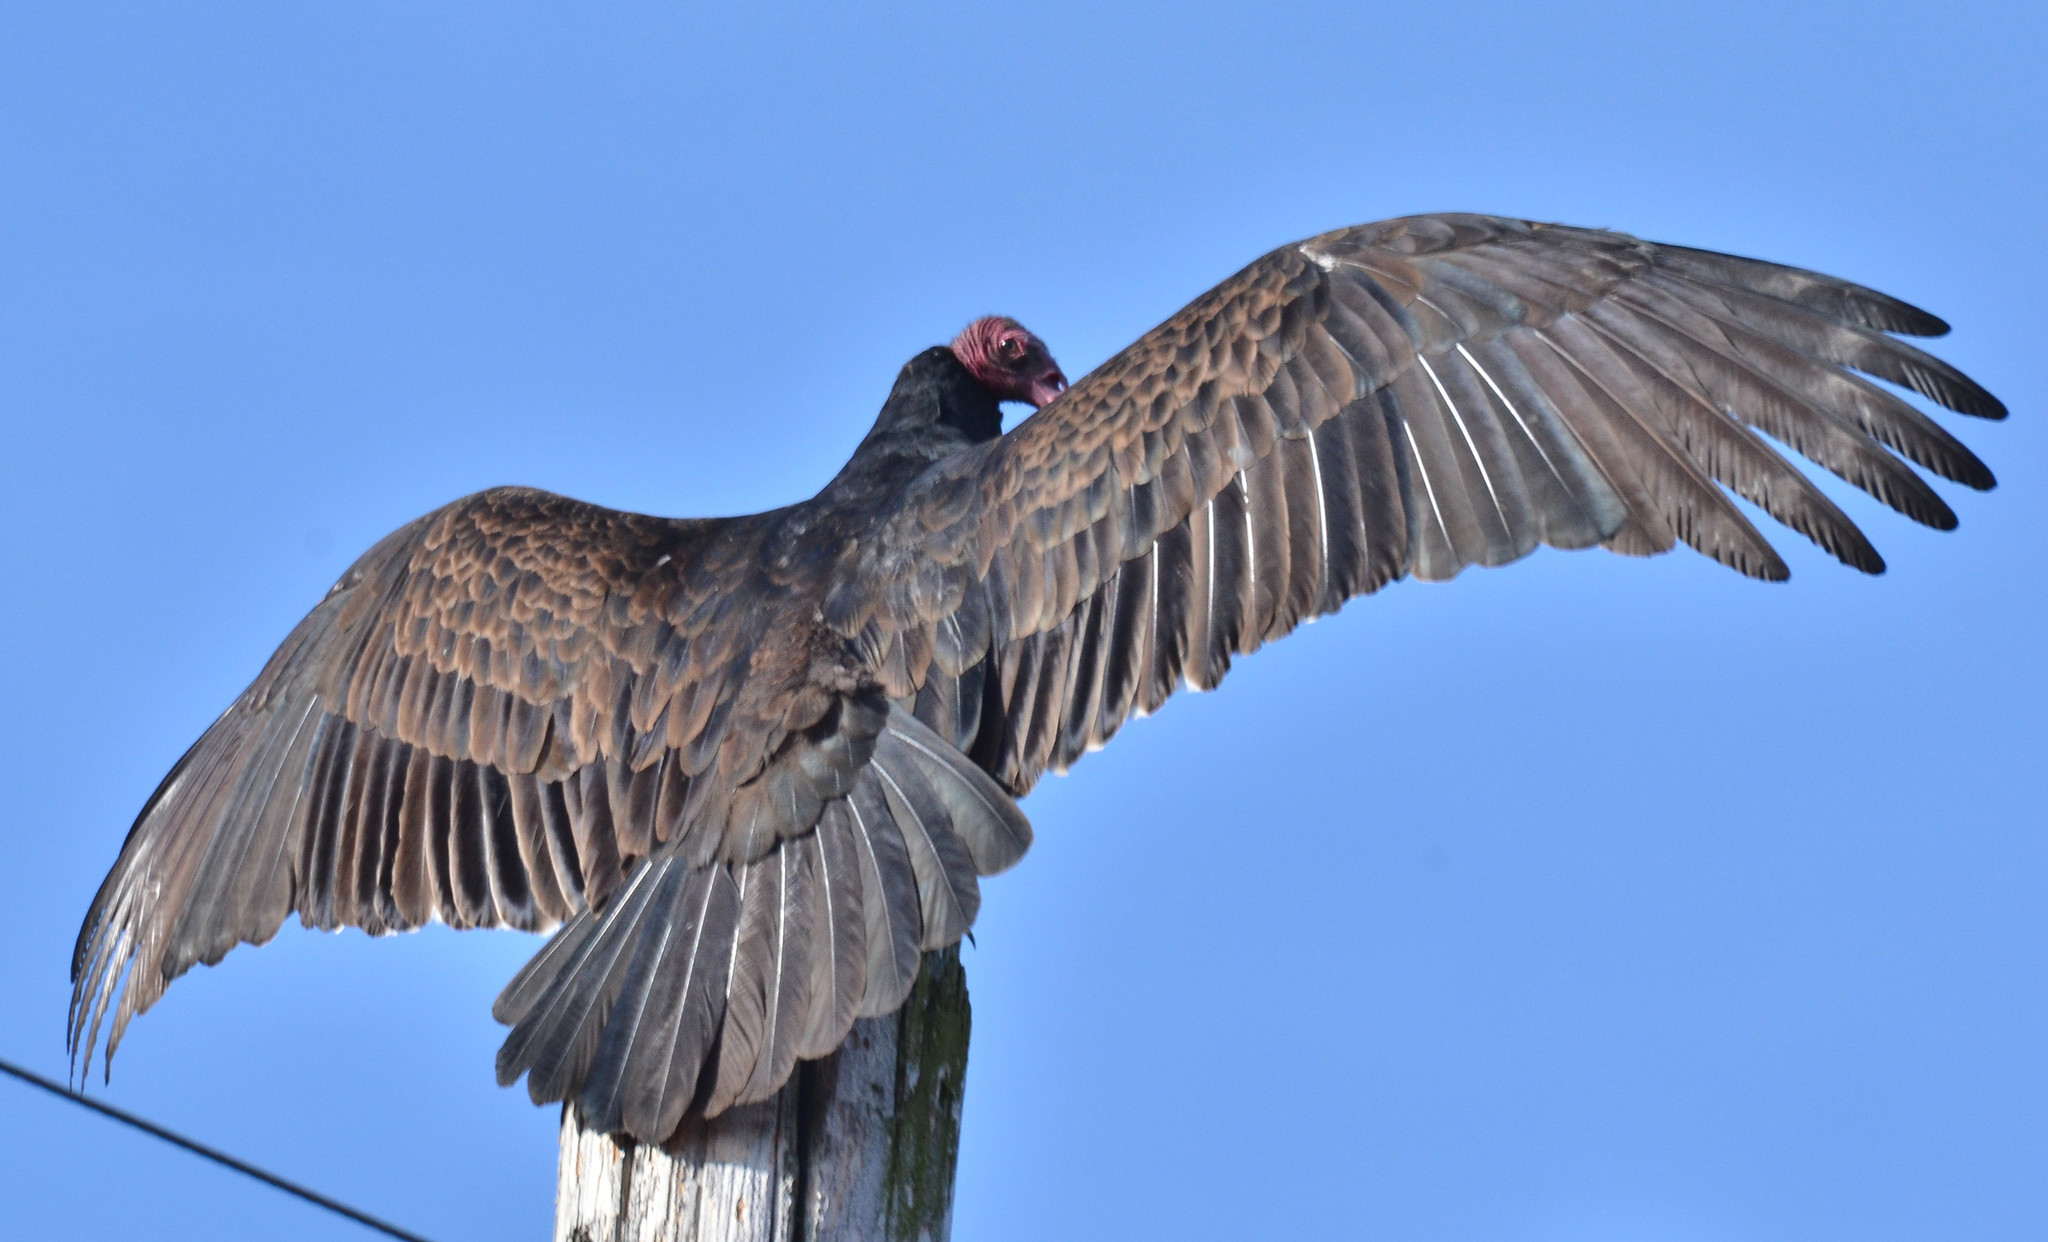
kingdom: Animalia
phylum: Chordata
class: Aves
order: Accipitriformes
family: Cathartidae
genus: Cathartes
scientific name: Cathartes aura
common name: Turkey vulture
